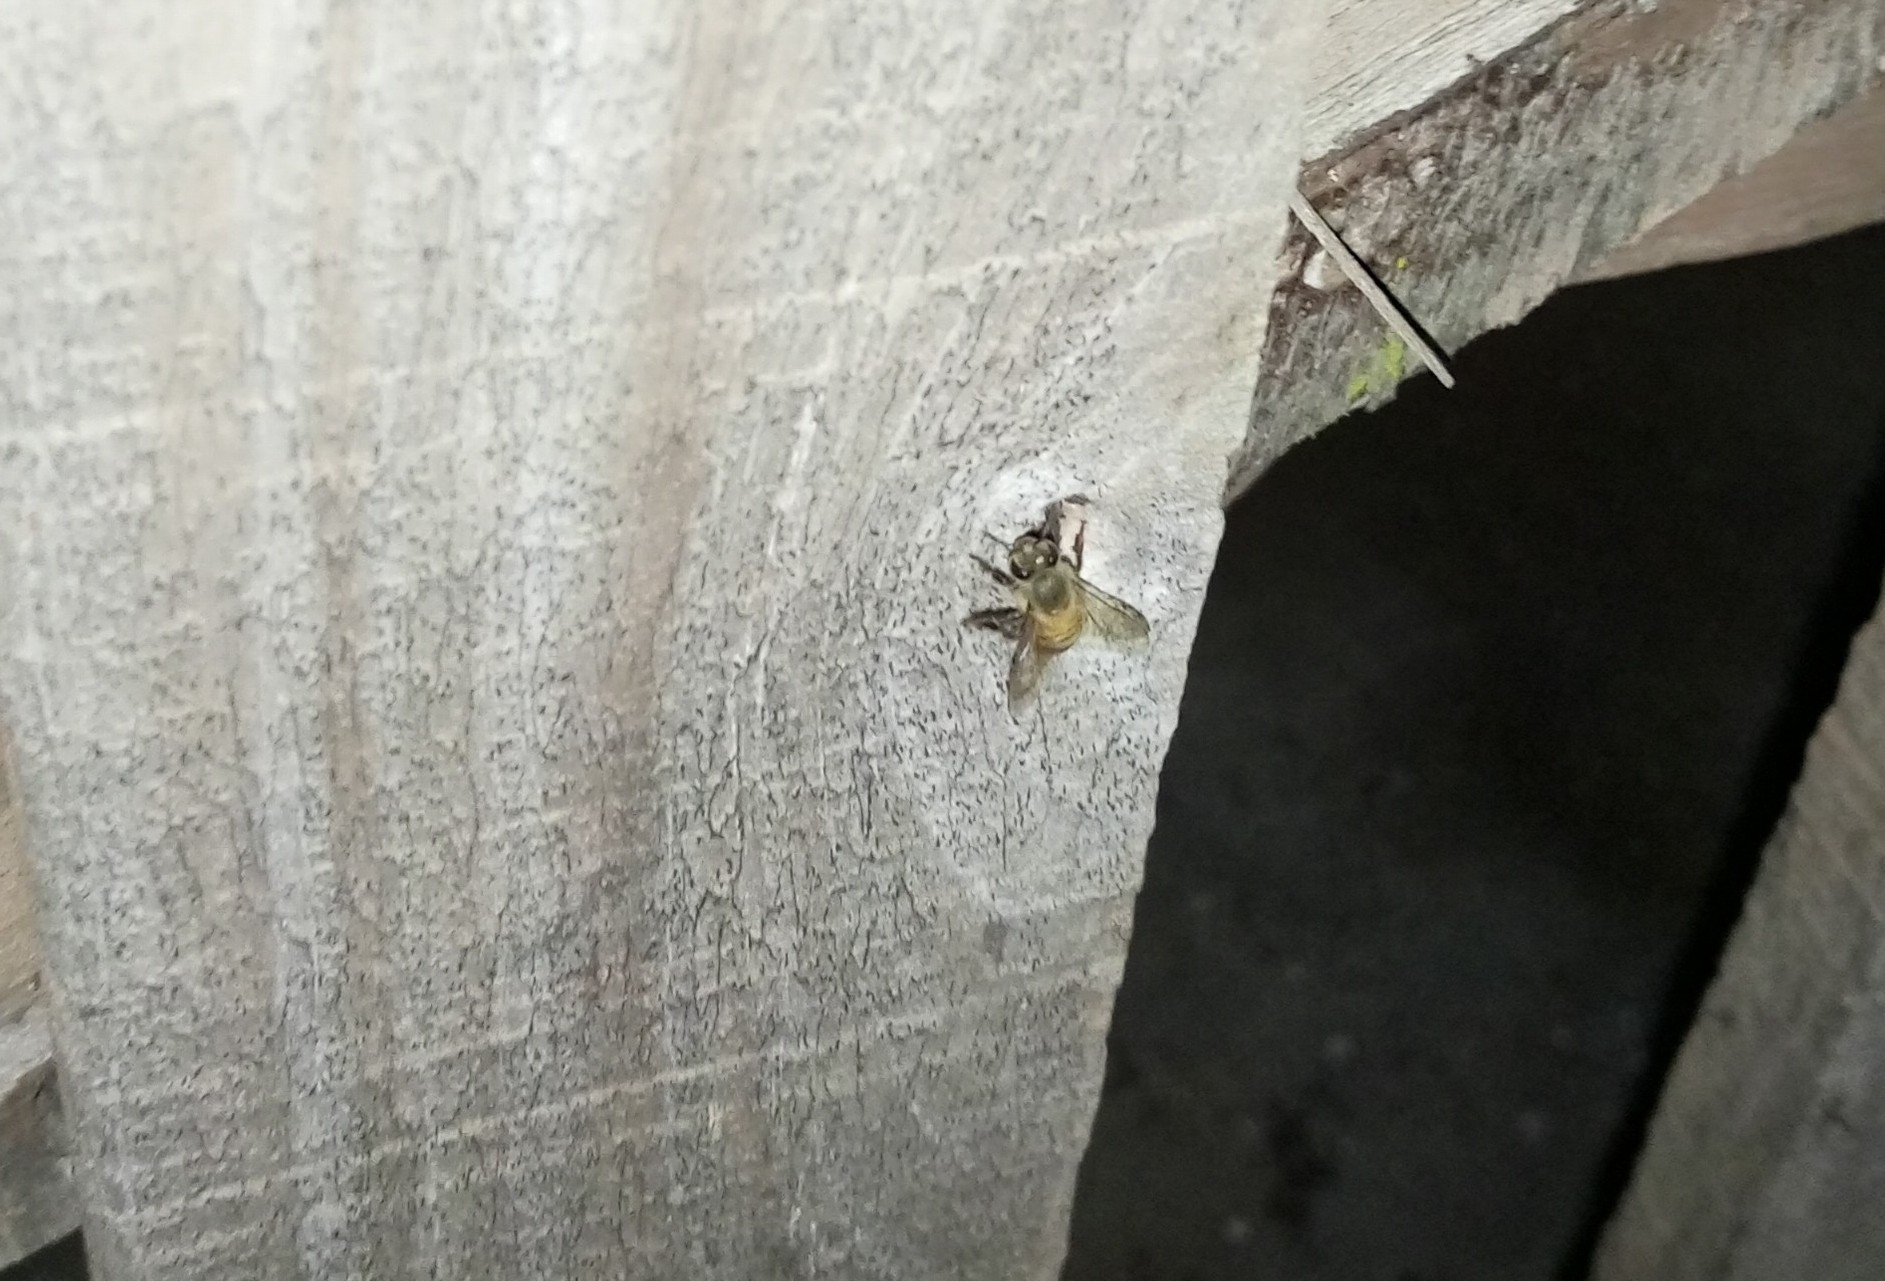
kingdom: Animalia
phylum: Arthropoda
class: Insecta
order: Hymenoptera
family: Apidae
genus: Apis
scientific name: Apis mellifera
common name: Honey bee
